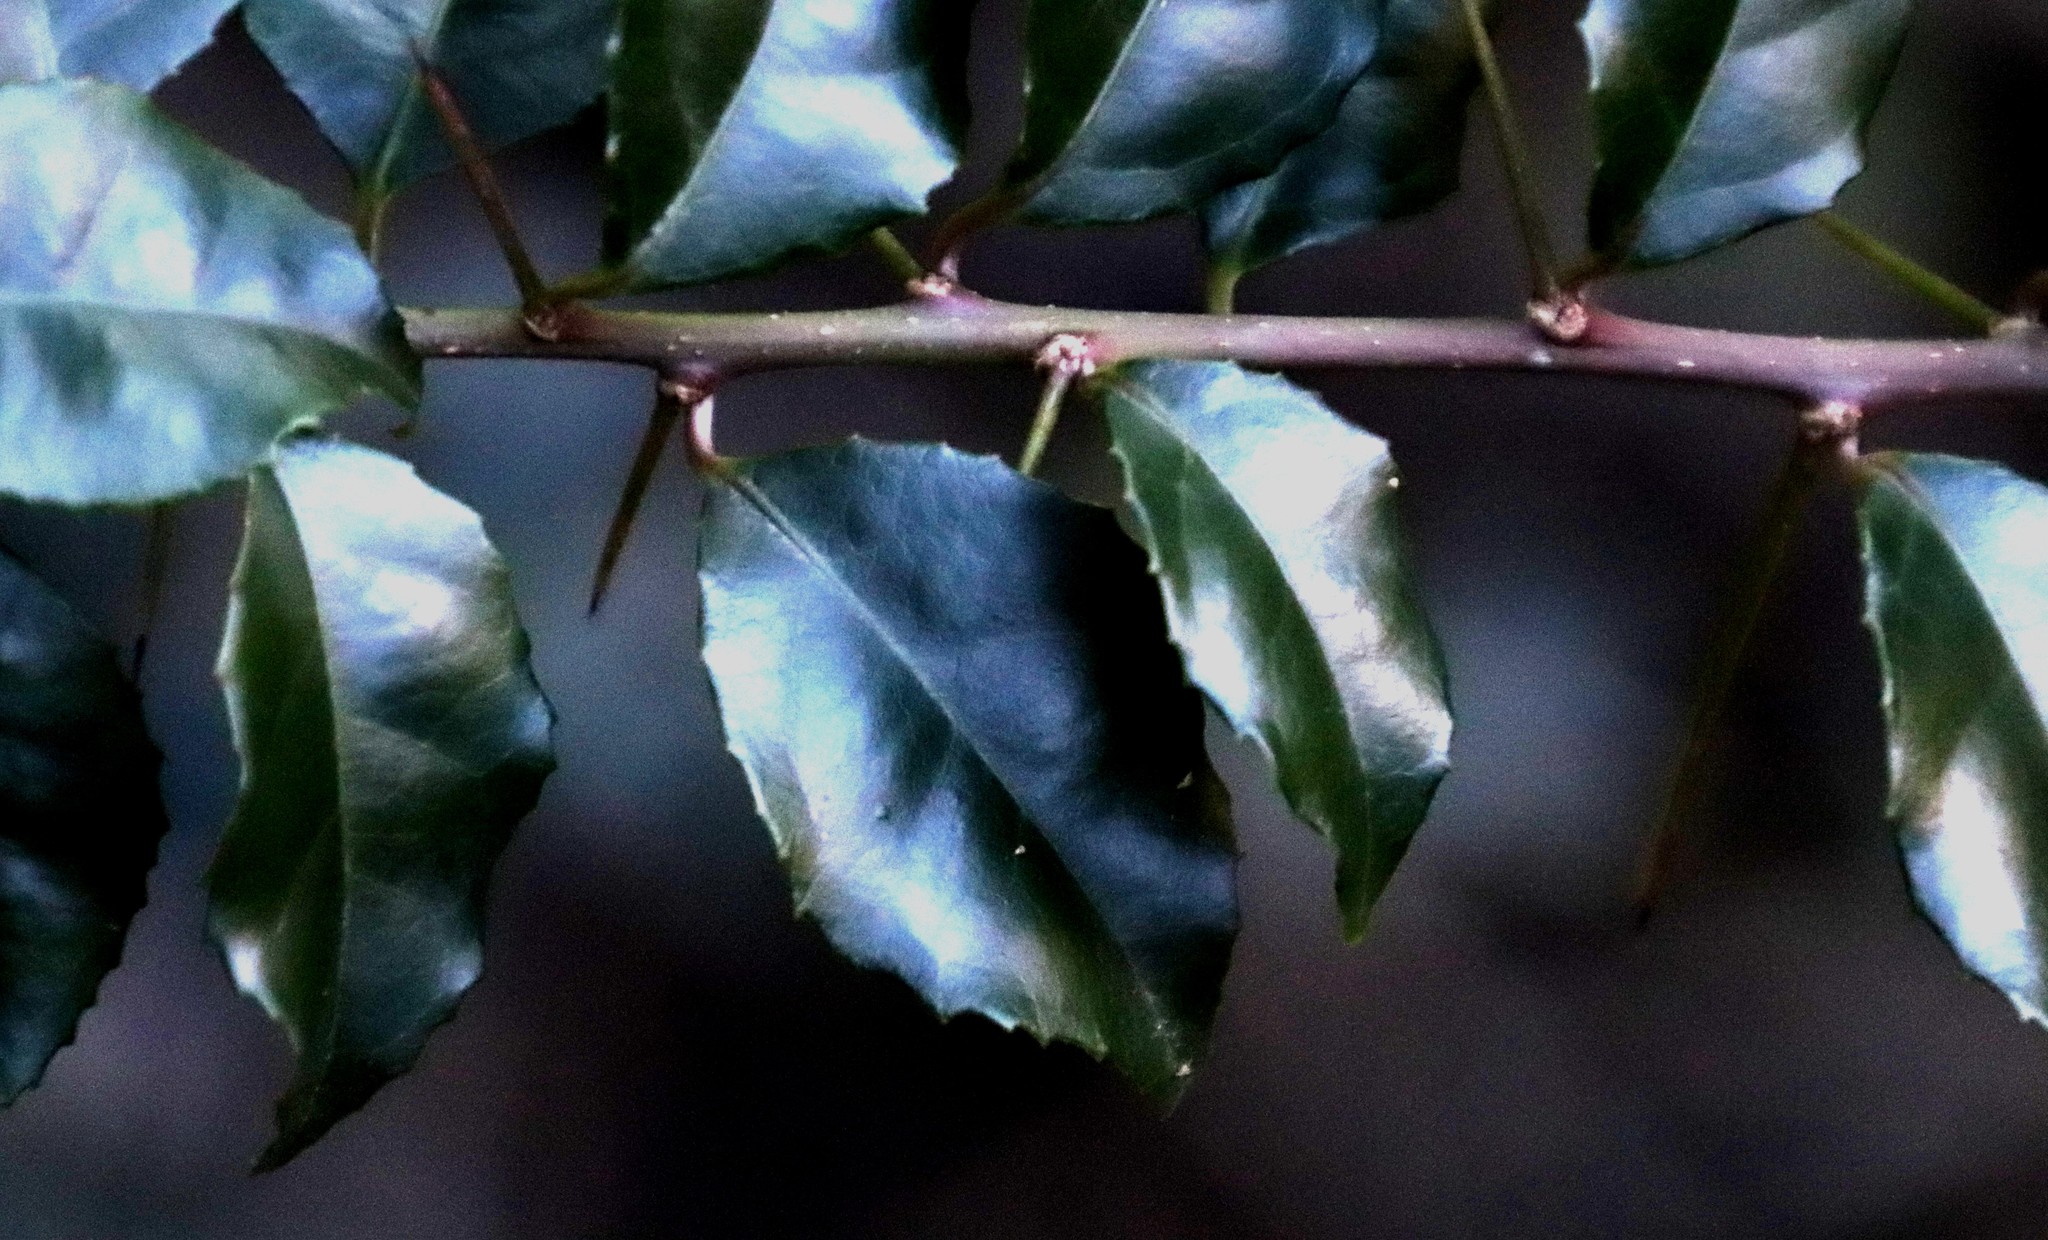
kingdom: Plantae
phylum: Tracheophyta
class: Magnoliopsida
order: Malpighiales
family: Salicaceae
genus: Scolopia
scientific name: Scolopia mundii
